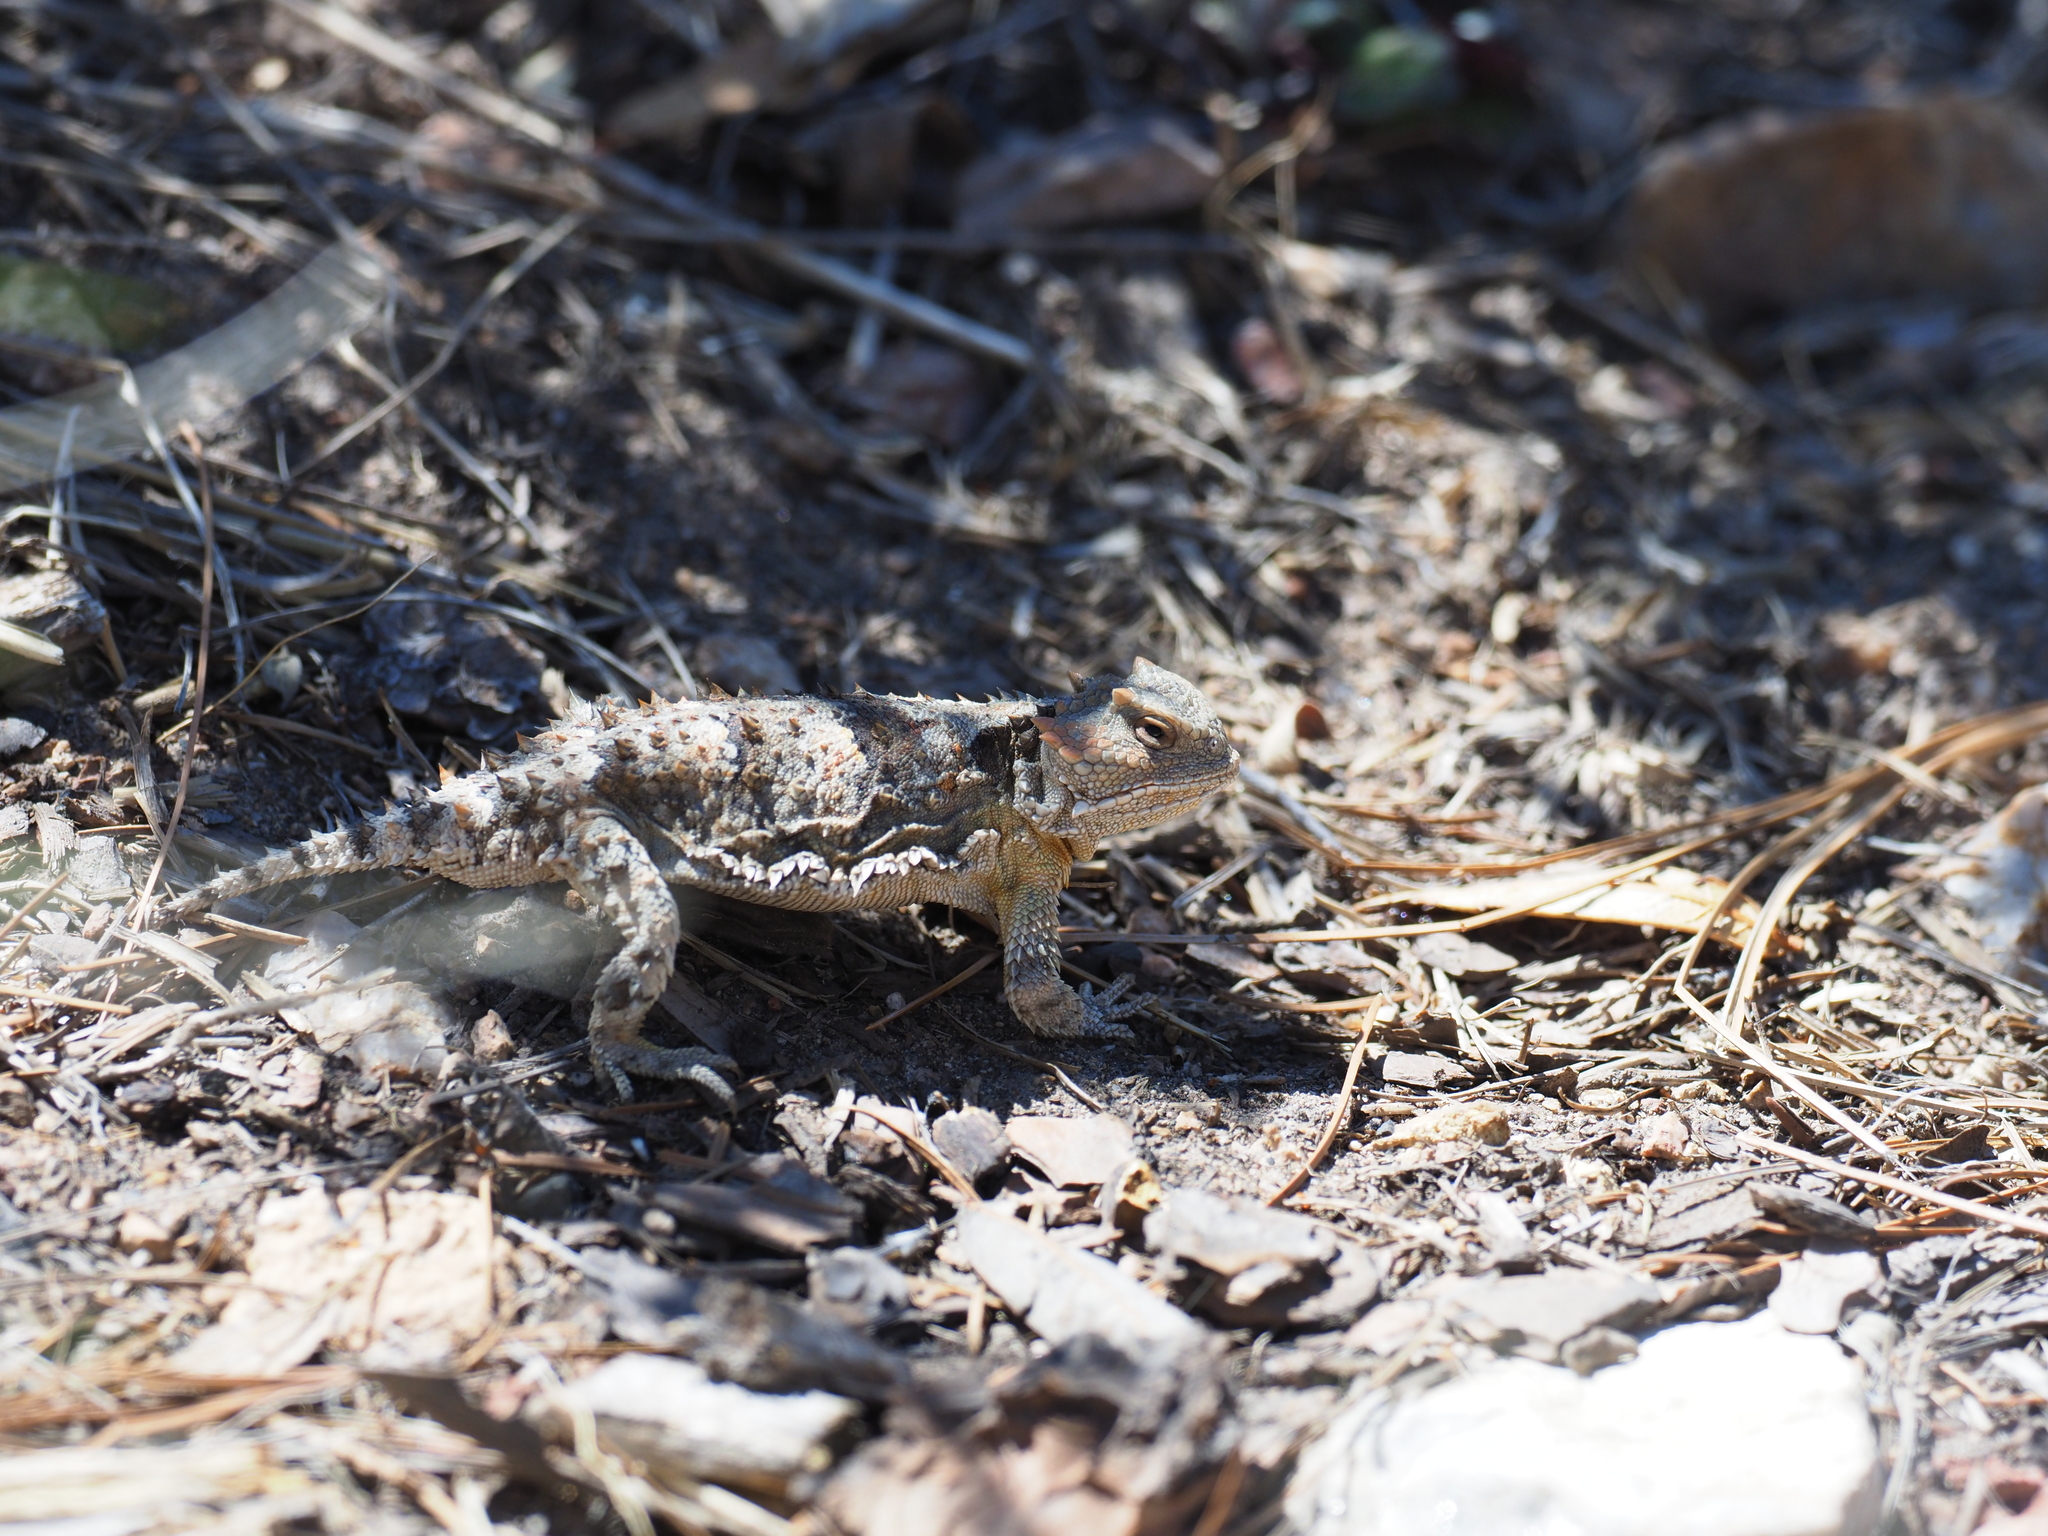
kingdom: Animalia
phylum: Chordata
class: Squamata
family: Phrynosomatidae
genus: Phrynosoma
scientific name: Phrynosoma hernandesi
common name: Greater short-horned lizard
